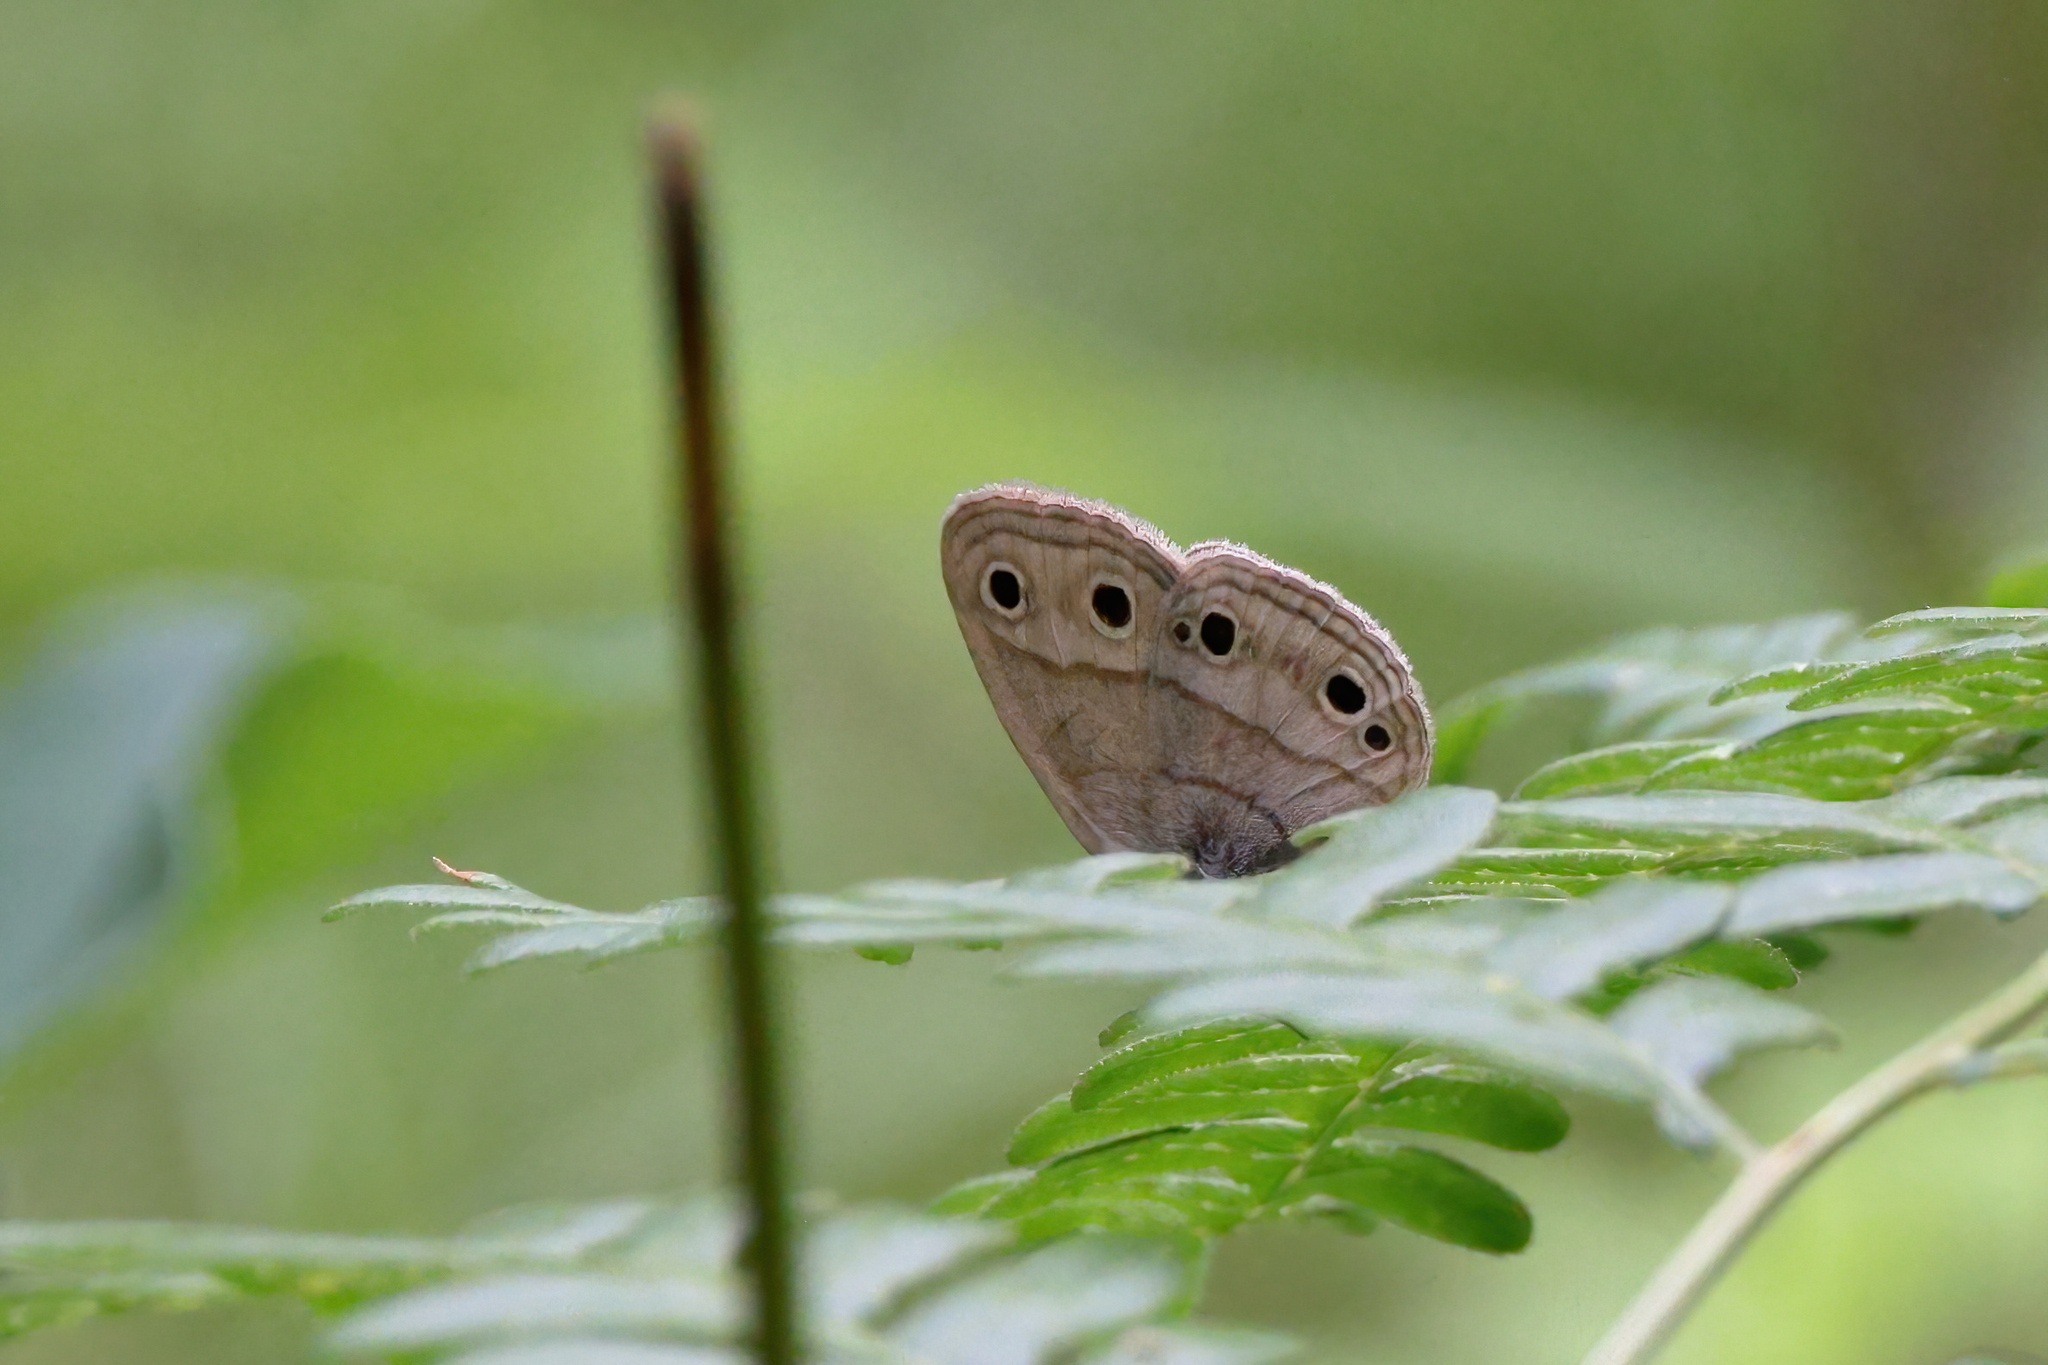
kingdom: Animalia
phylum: Arthropoda
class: Insecta
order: Lepidoptera
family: Nymphalidae
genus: Euptychia
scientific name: Euptychia cymela
